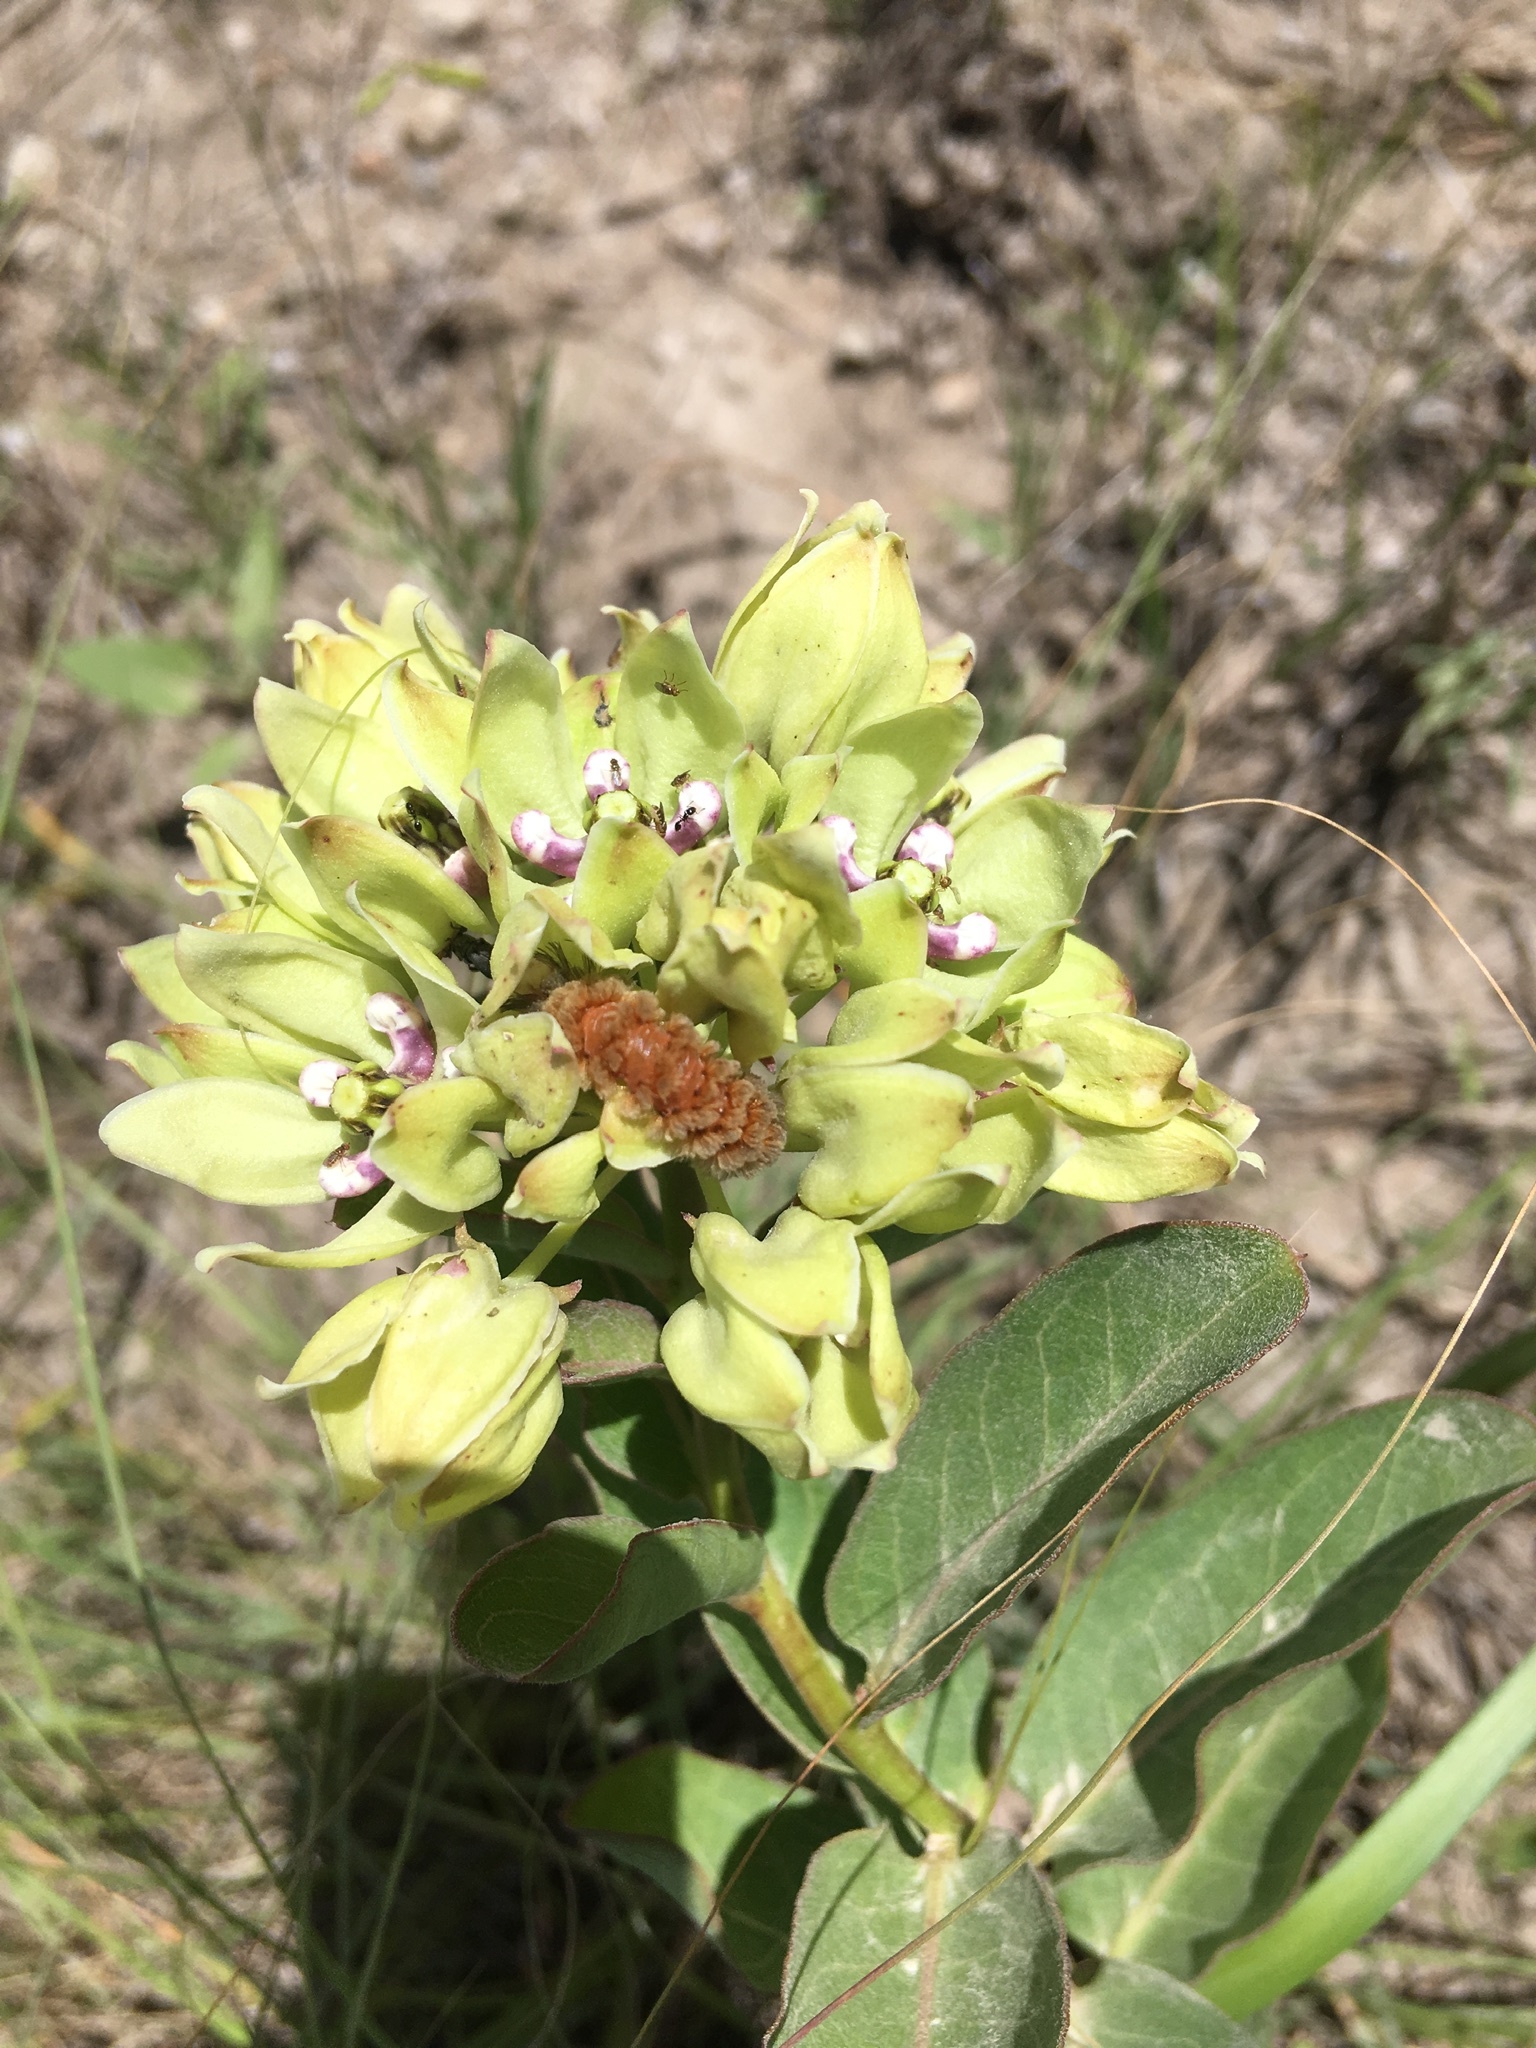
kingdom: Animalia
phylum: Arthropoda
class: Insecta
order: Lepidoptera
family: Erebidae
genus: Cycnia
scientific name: Cycnia collaris
